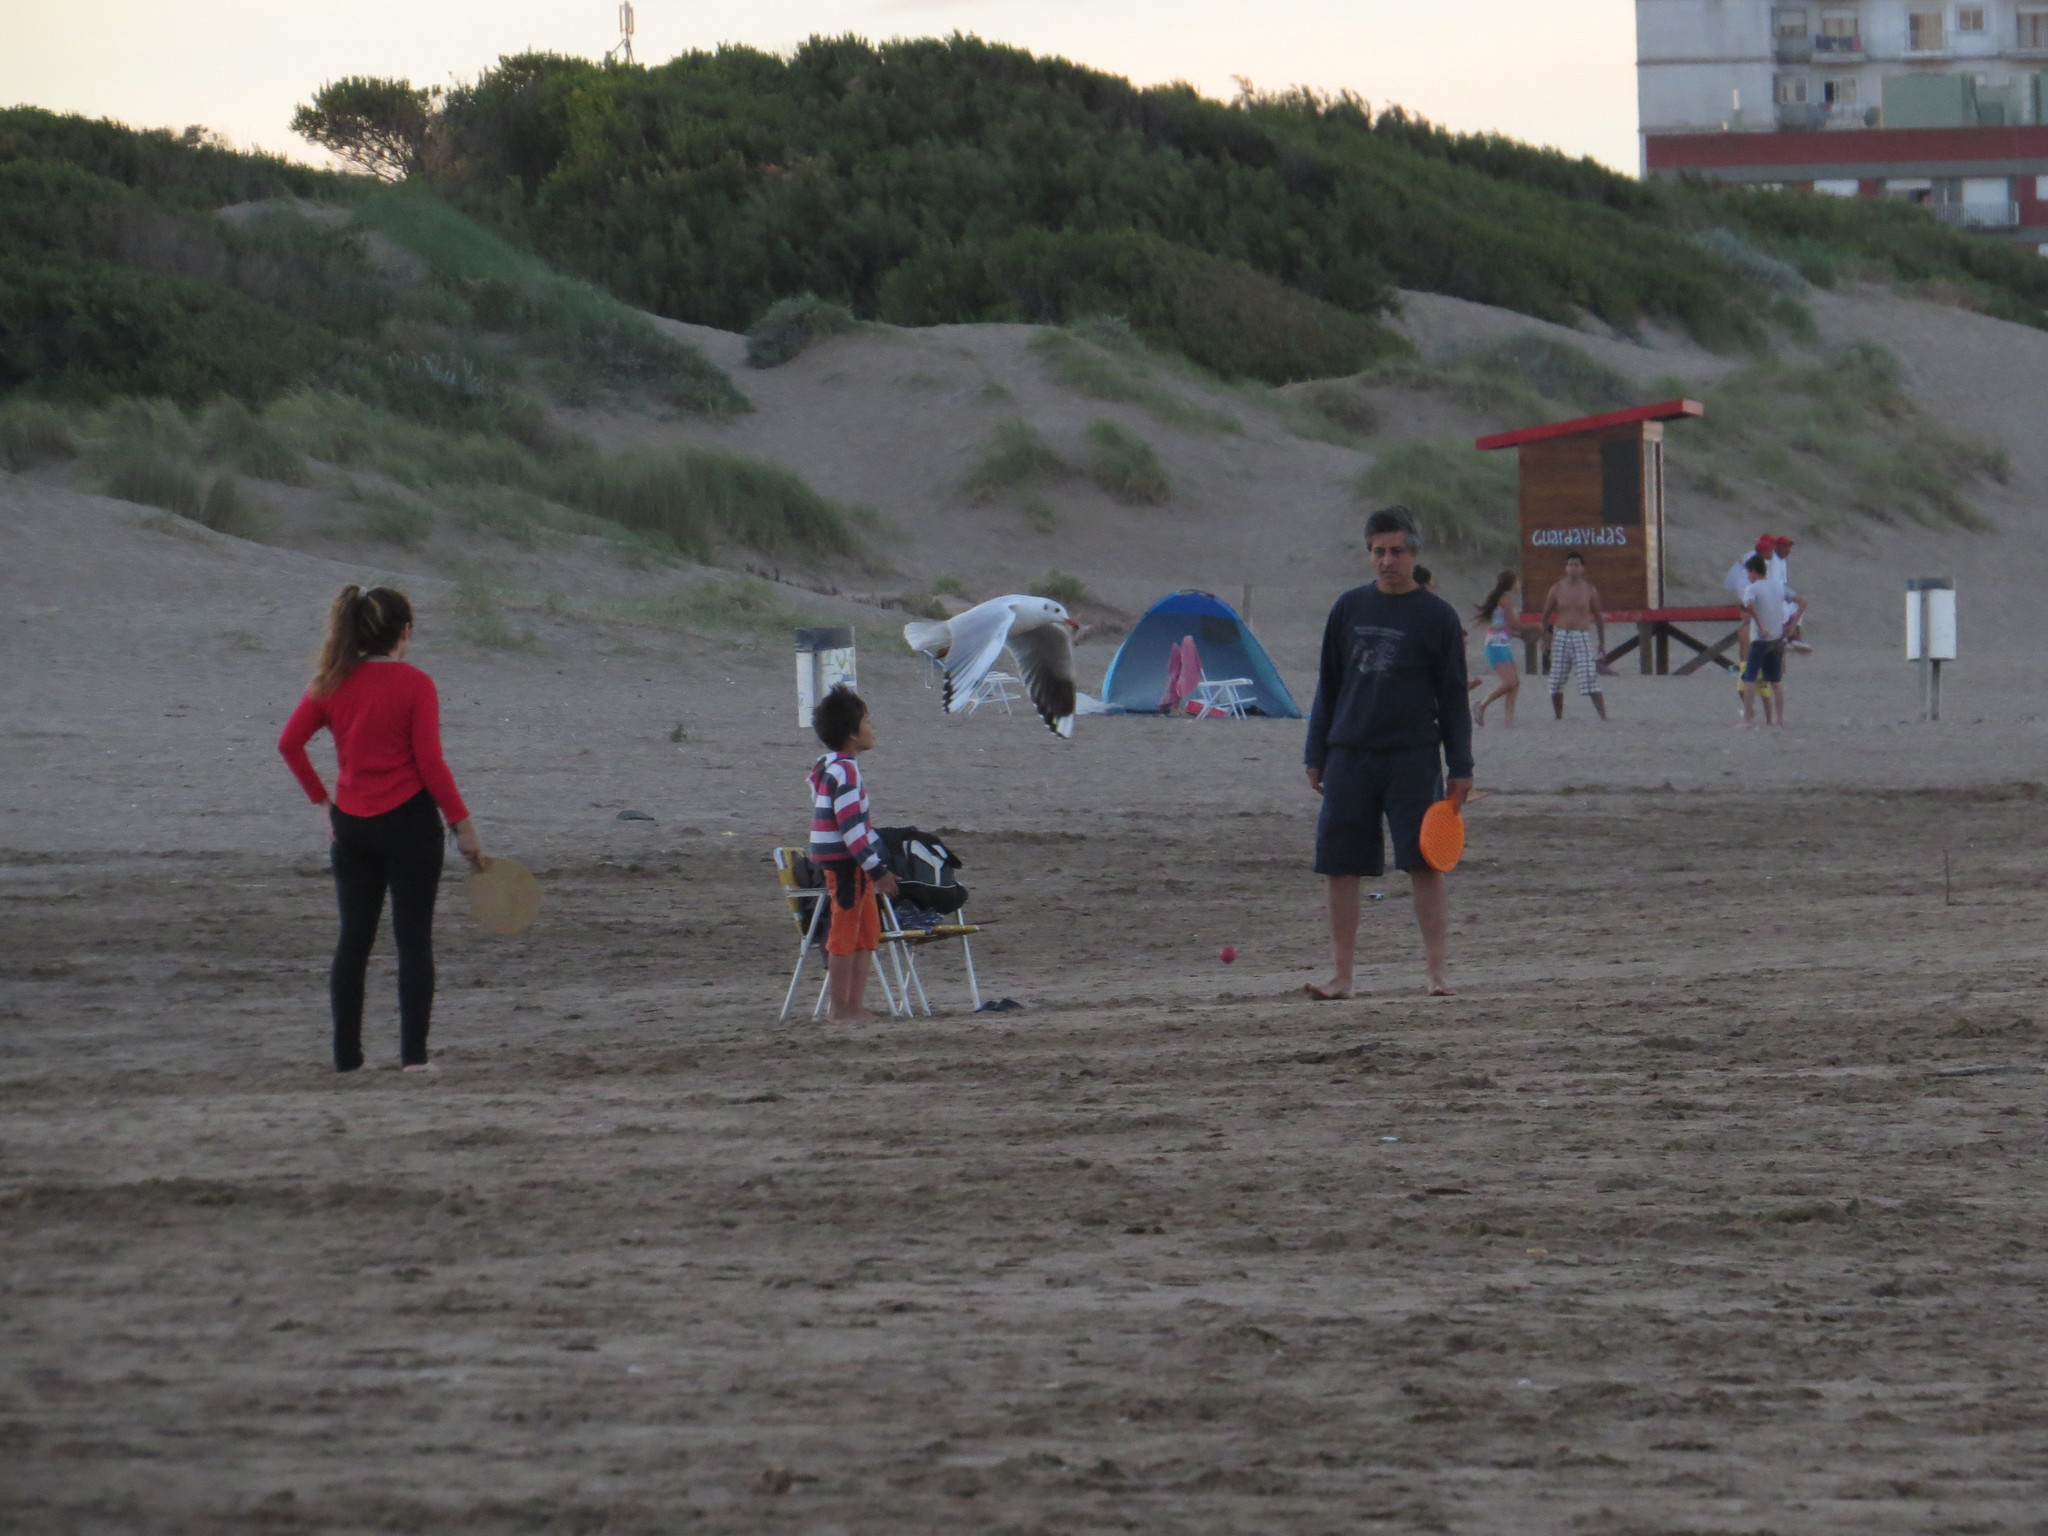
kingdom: Animalia
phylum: Chordata
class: Aves
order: Charadriiformes
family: Laridae
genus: Chroicocephalus
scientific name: Chroicocephalus maculipennis
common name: Brown-hooded gull
